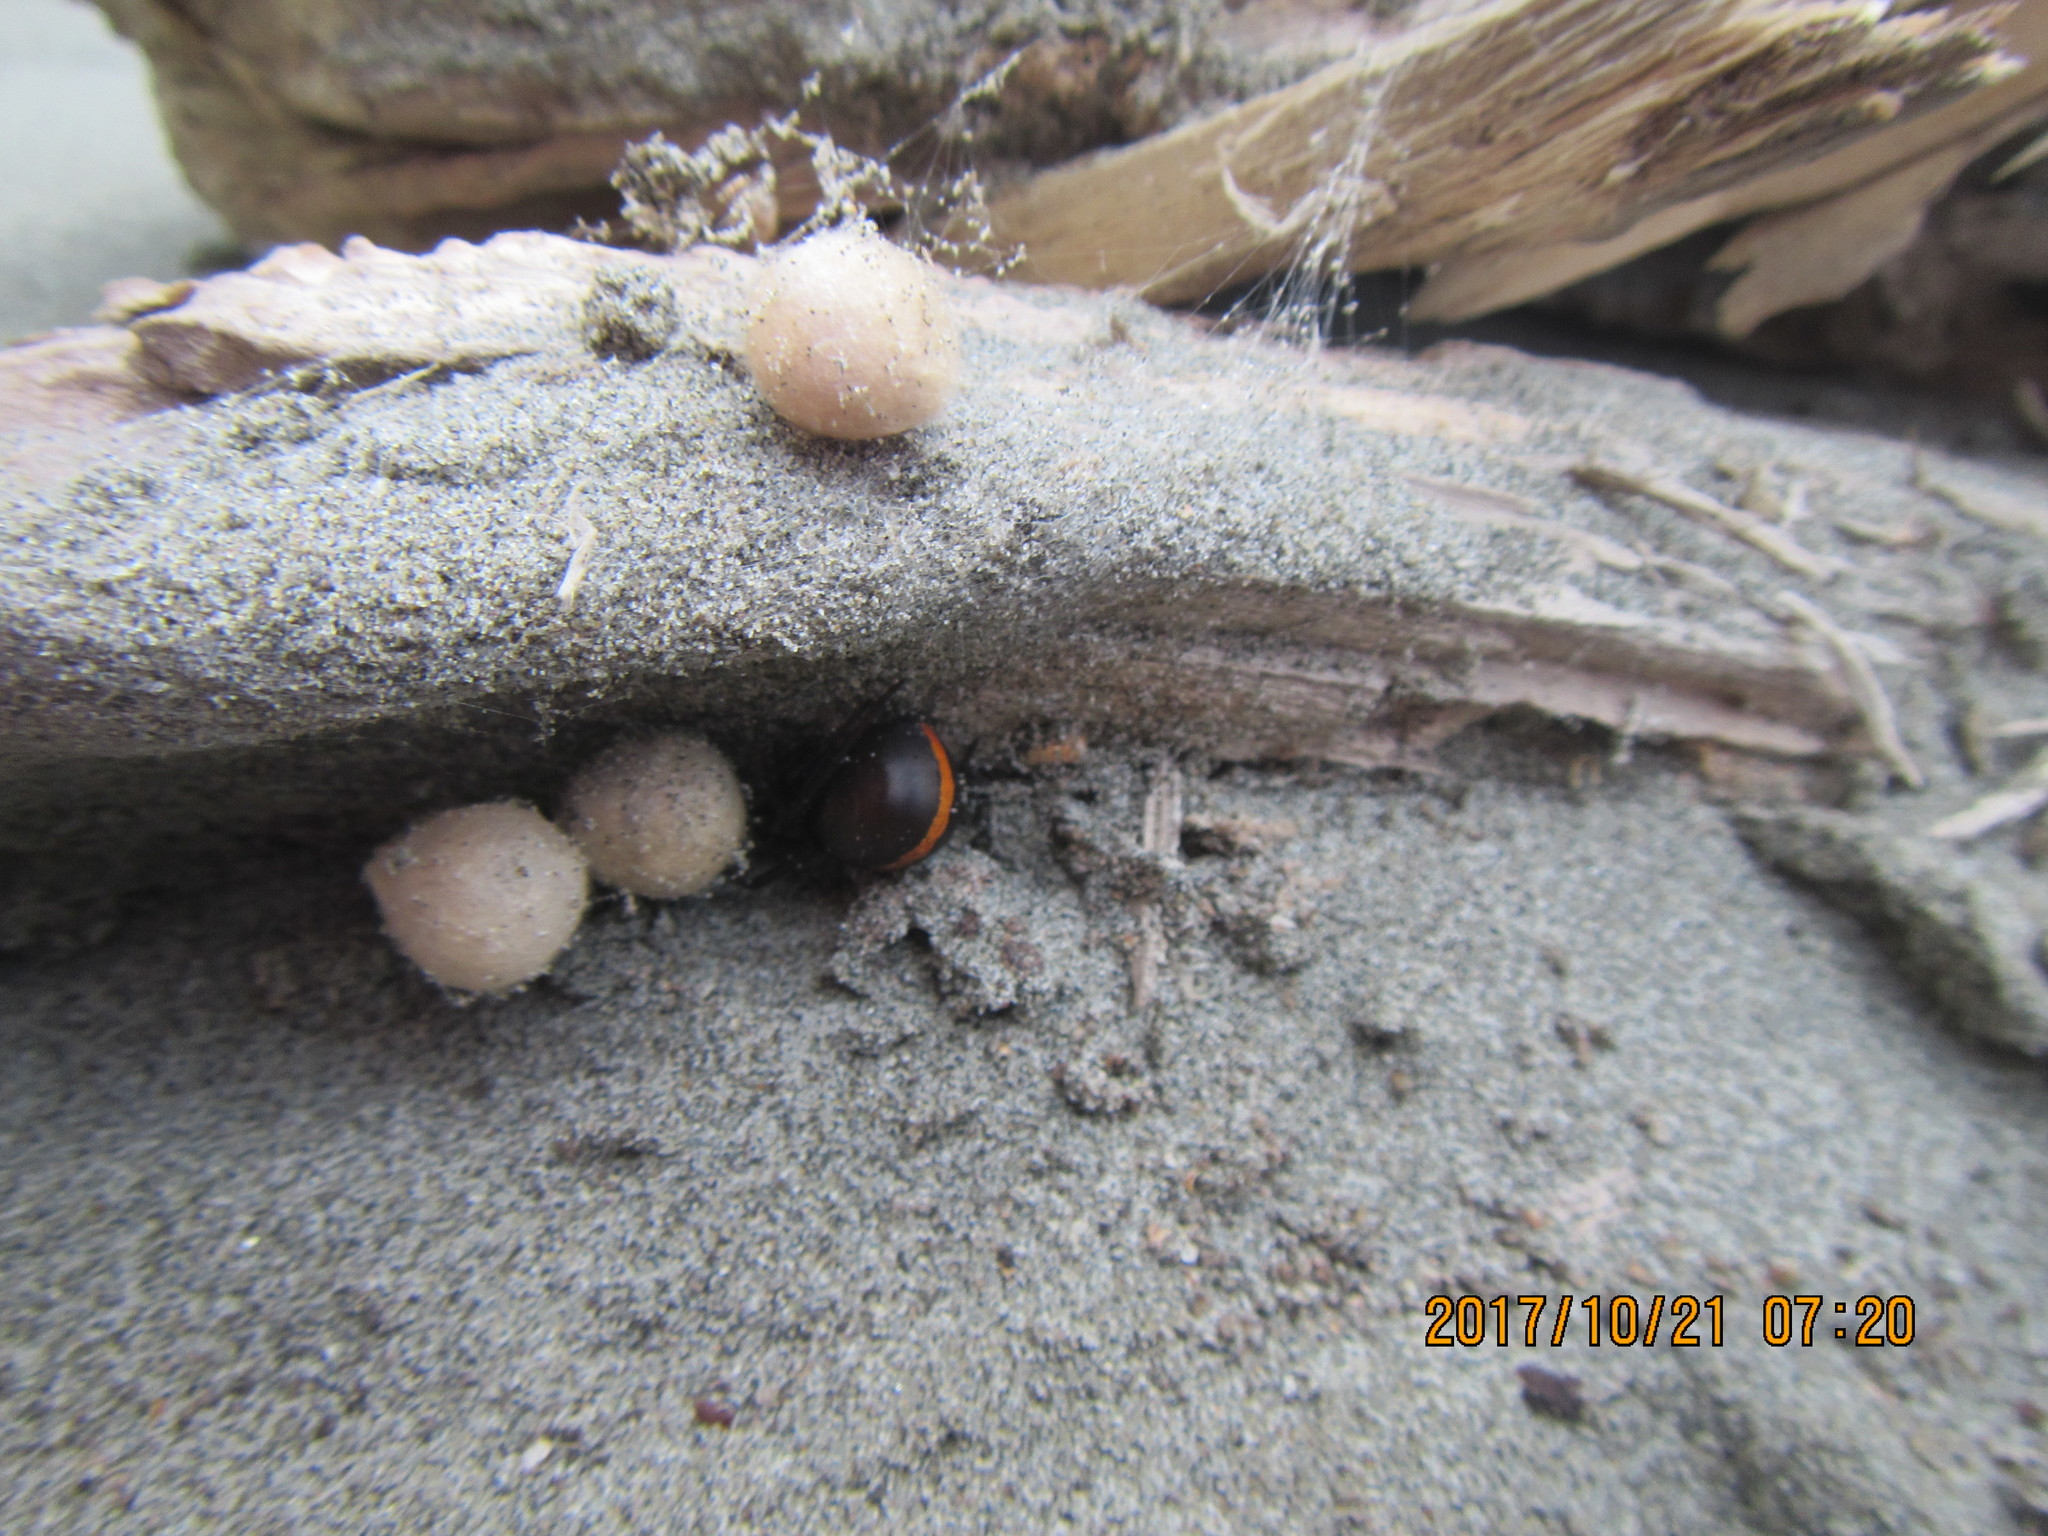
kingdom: Animalia
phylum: Arthropoda
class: Arachnida
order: Araneae
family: Theridiidae
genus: Latrodectus
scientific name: Latrodectus katipo
